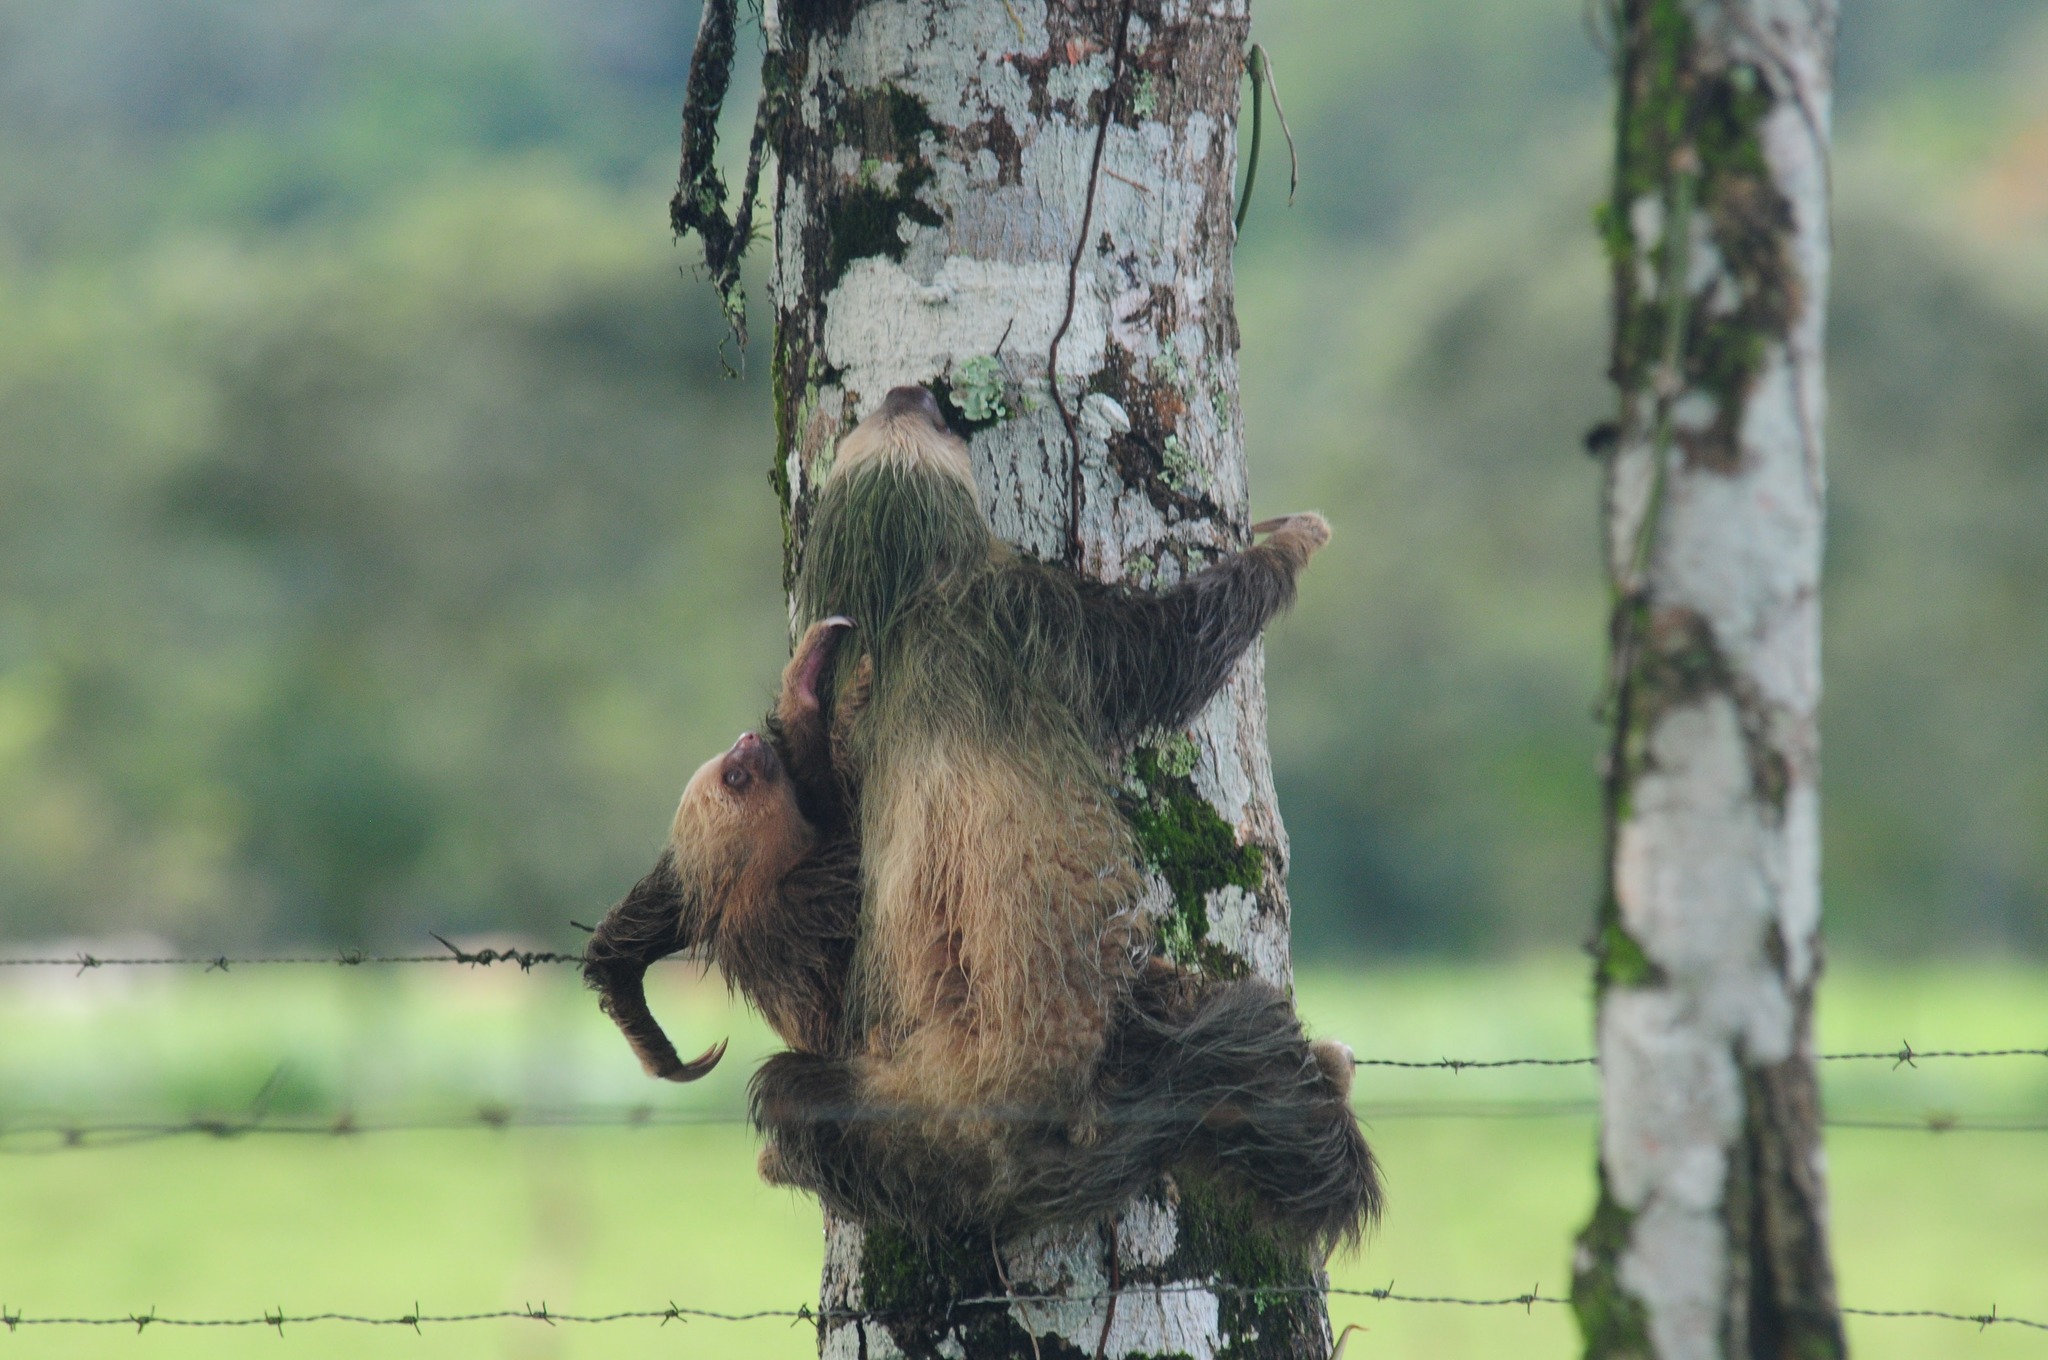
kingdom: Animalia
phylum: Chordata
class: Mammalia
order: Pilosa
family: Megalonychidae
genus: Choloepus
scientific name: Choloepus hoffmanni
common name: Hoffmann's two-toed sloth
